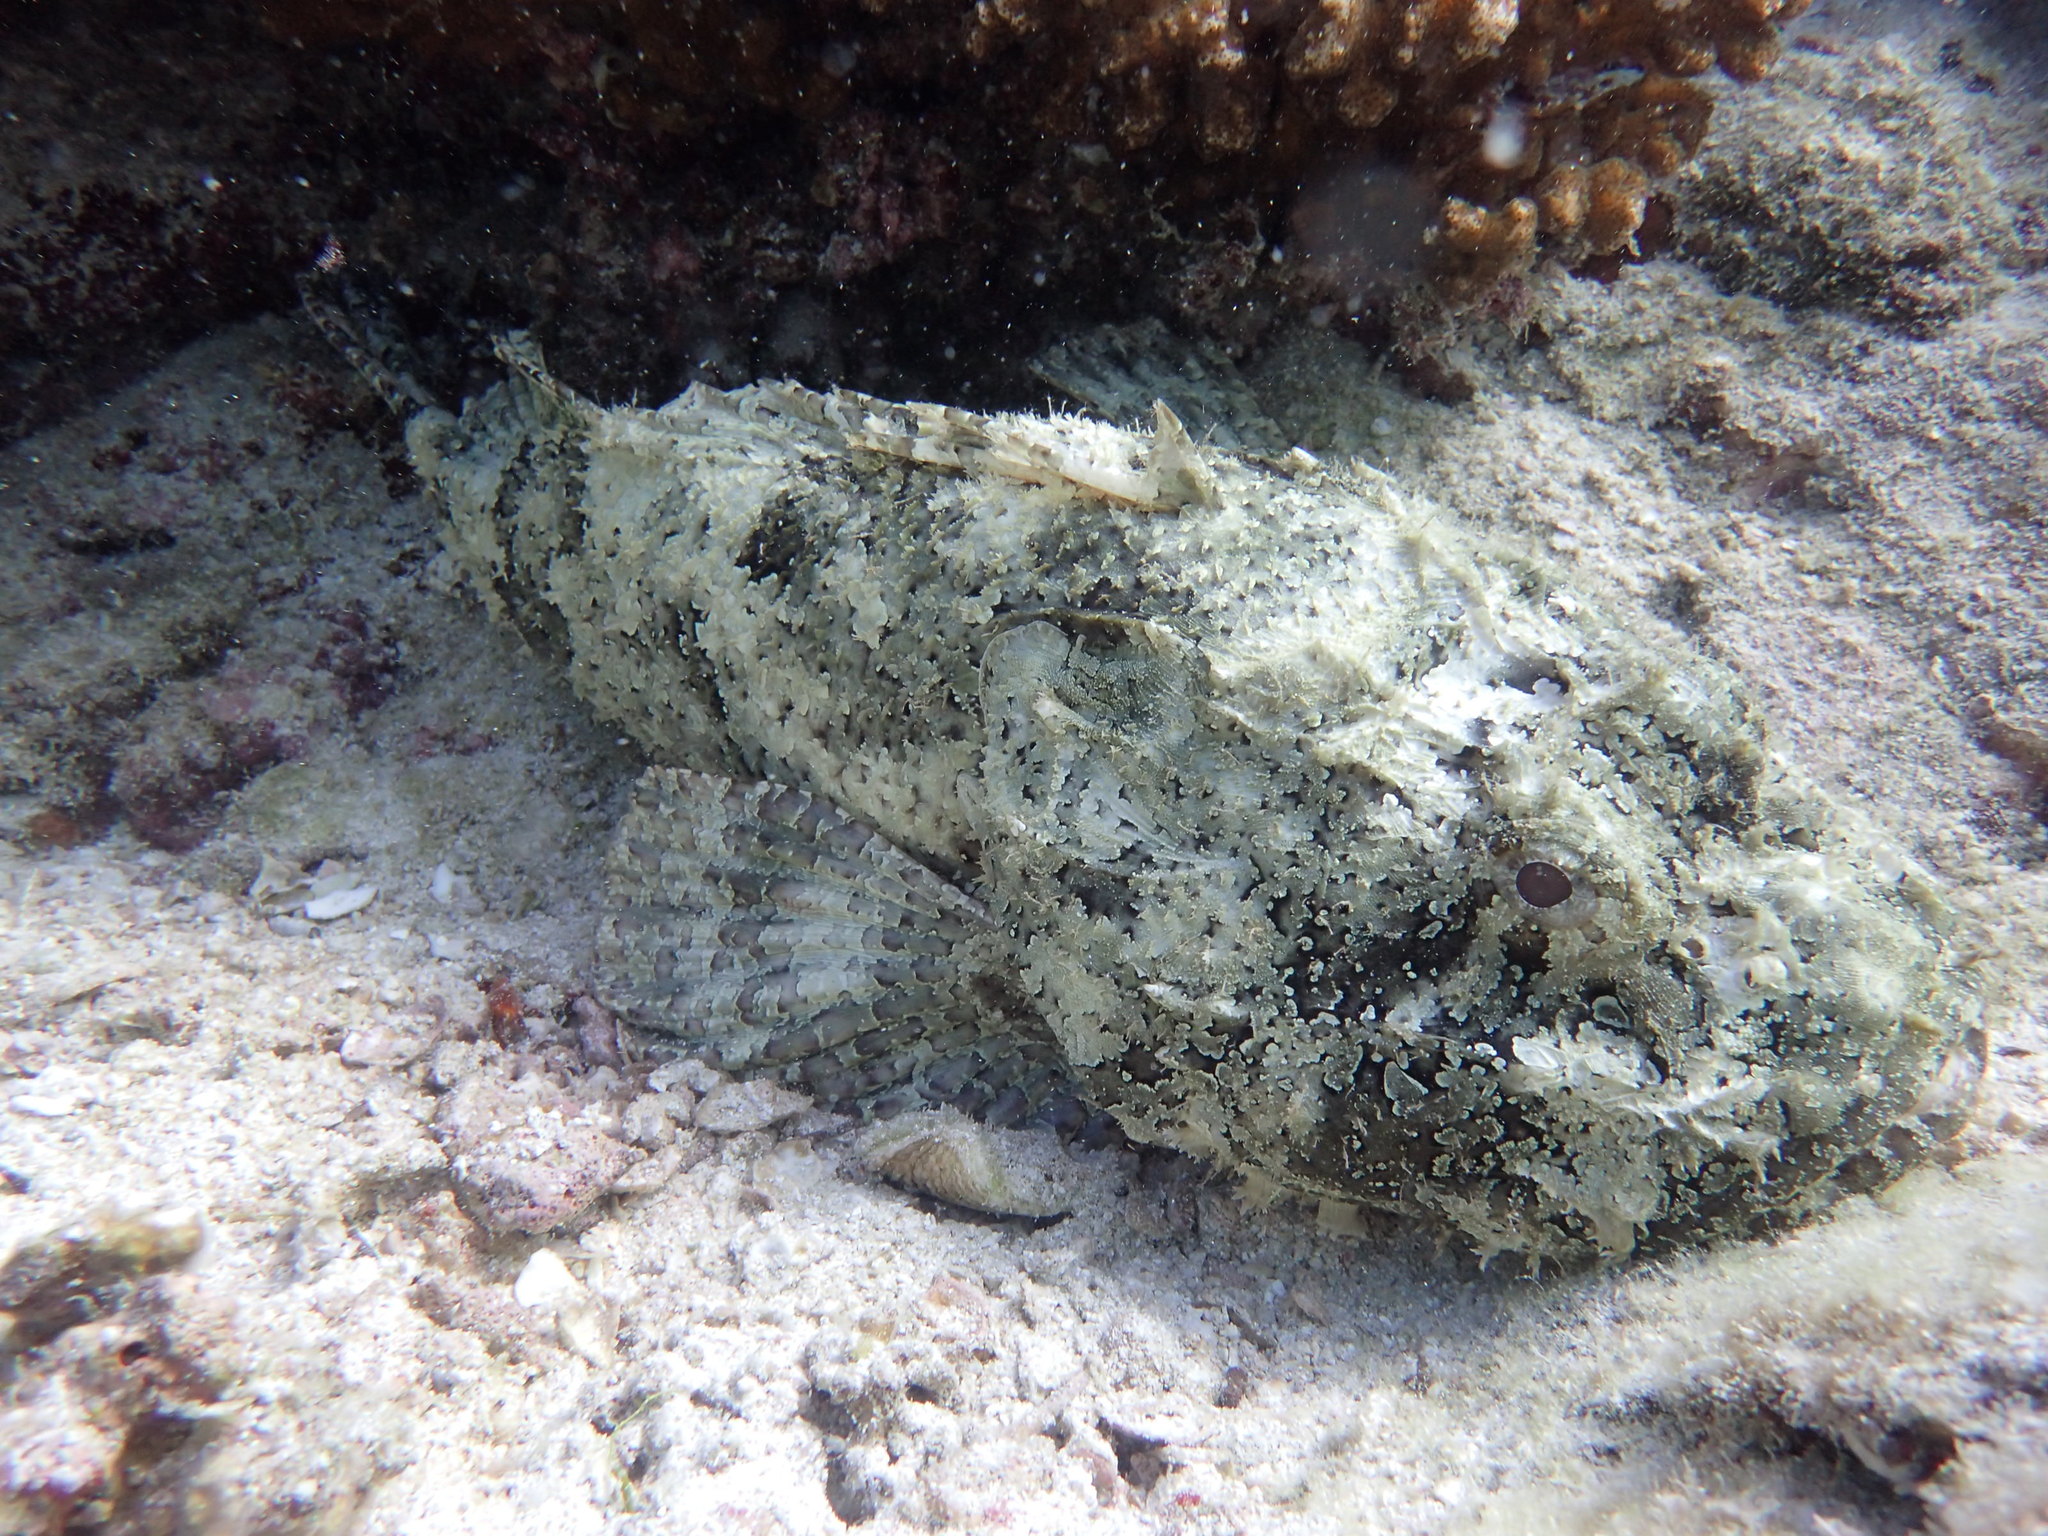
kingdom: Animalia
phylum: Chordata
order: Scorpaeniformes
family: Scorpaenidae
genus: Scorpaena
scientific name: Scorpaena mystes
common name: Pacific spotted scorpionfish
